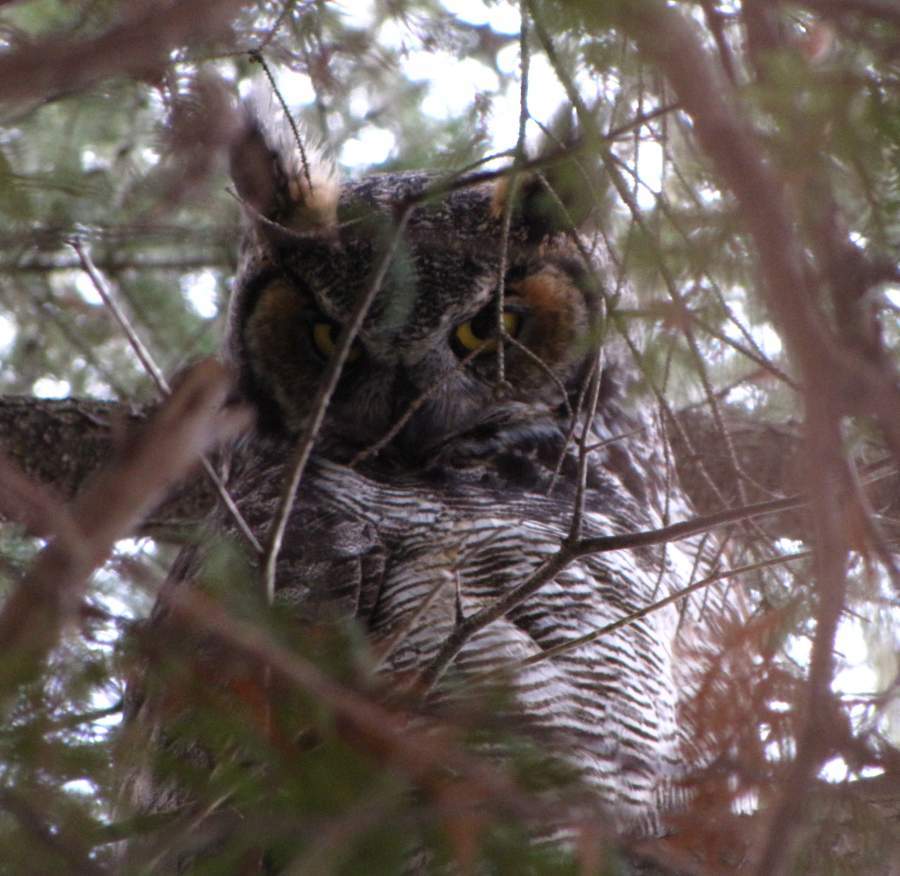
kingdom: Animalia
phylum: Chordata
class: Aves
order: Strigiformes
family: Strigidae
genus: Bubo
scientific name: Bubo virginianus
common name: Great horned owl
